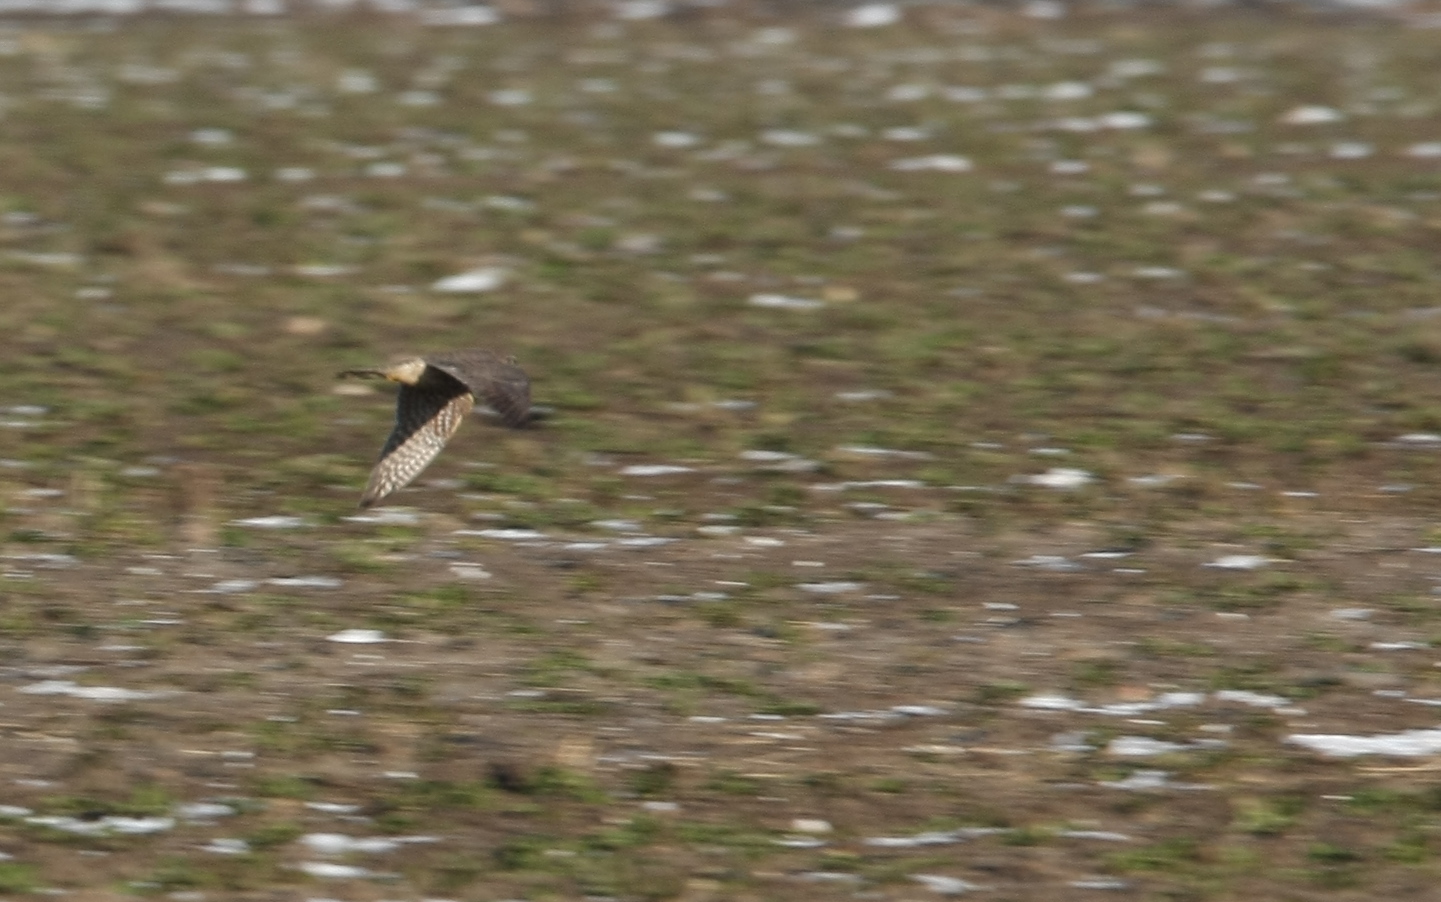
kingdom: Animalia
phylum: Chordata
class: Aves
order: Falconiformes
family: Falconidae
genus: Falco
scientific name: Falco columbarius
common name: Merlin
